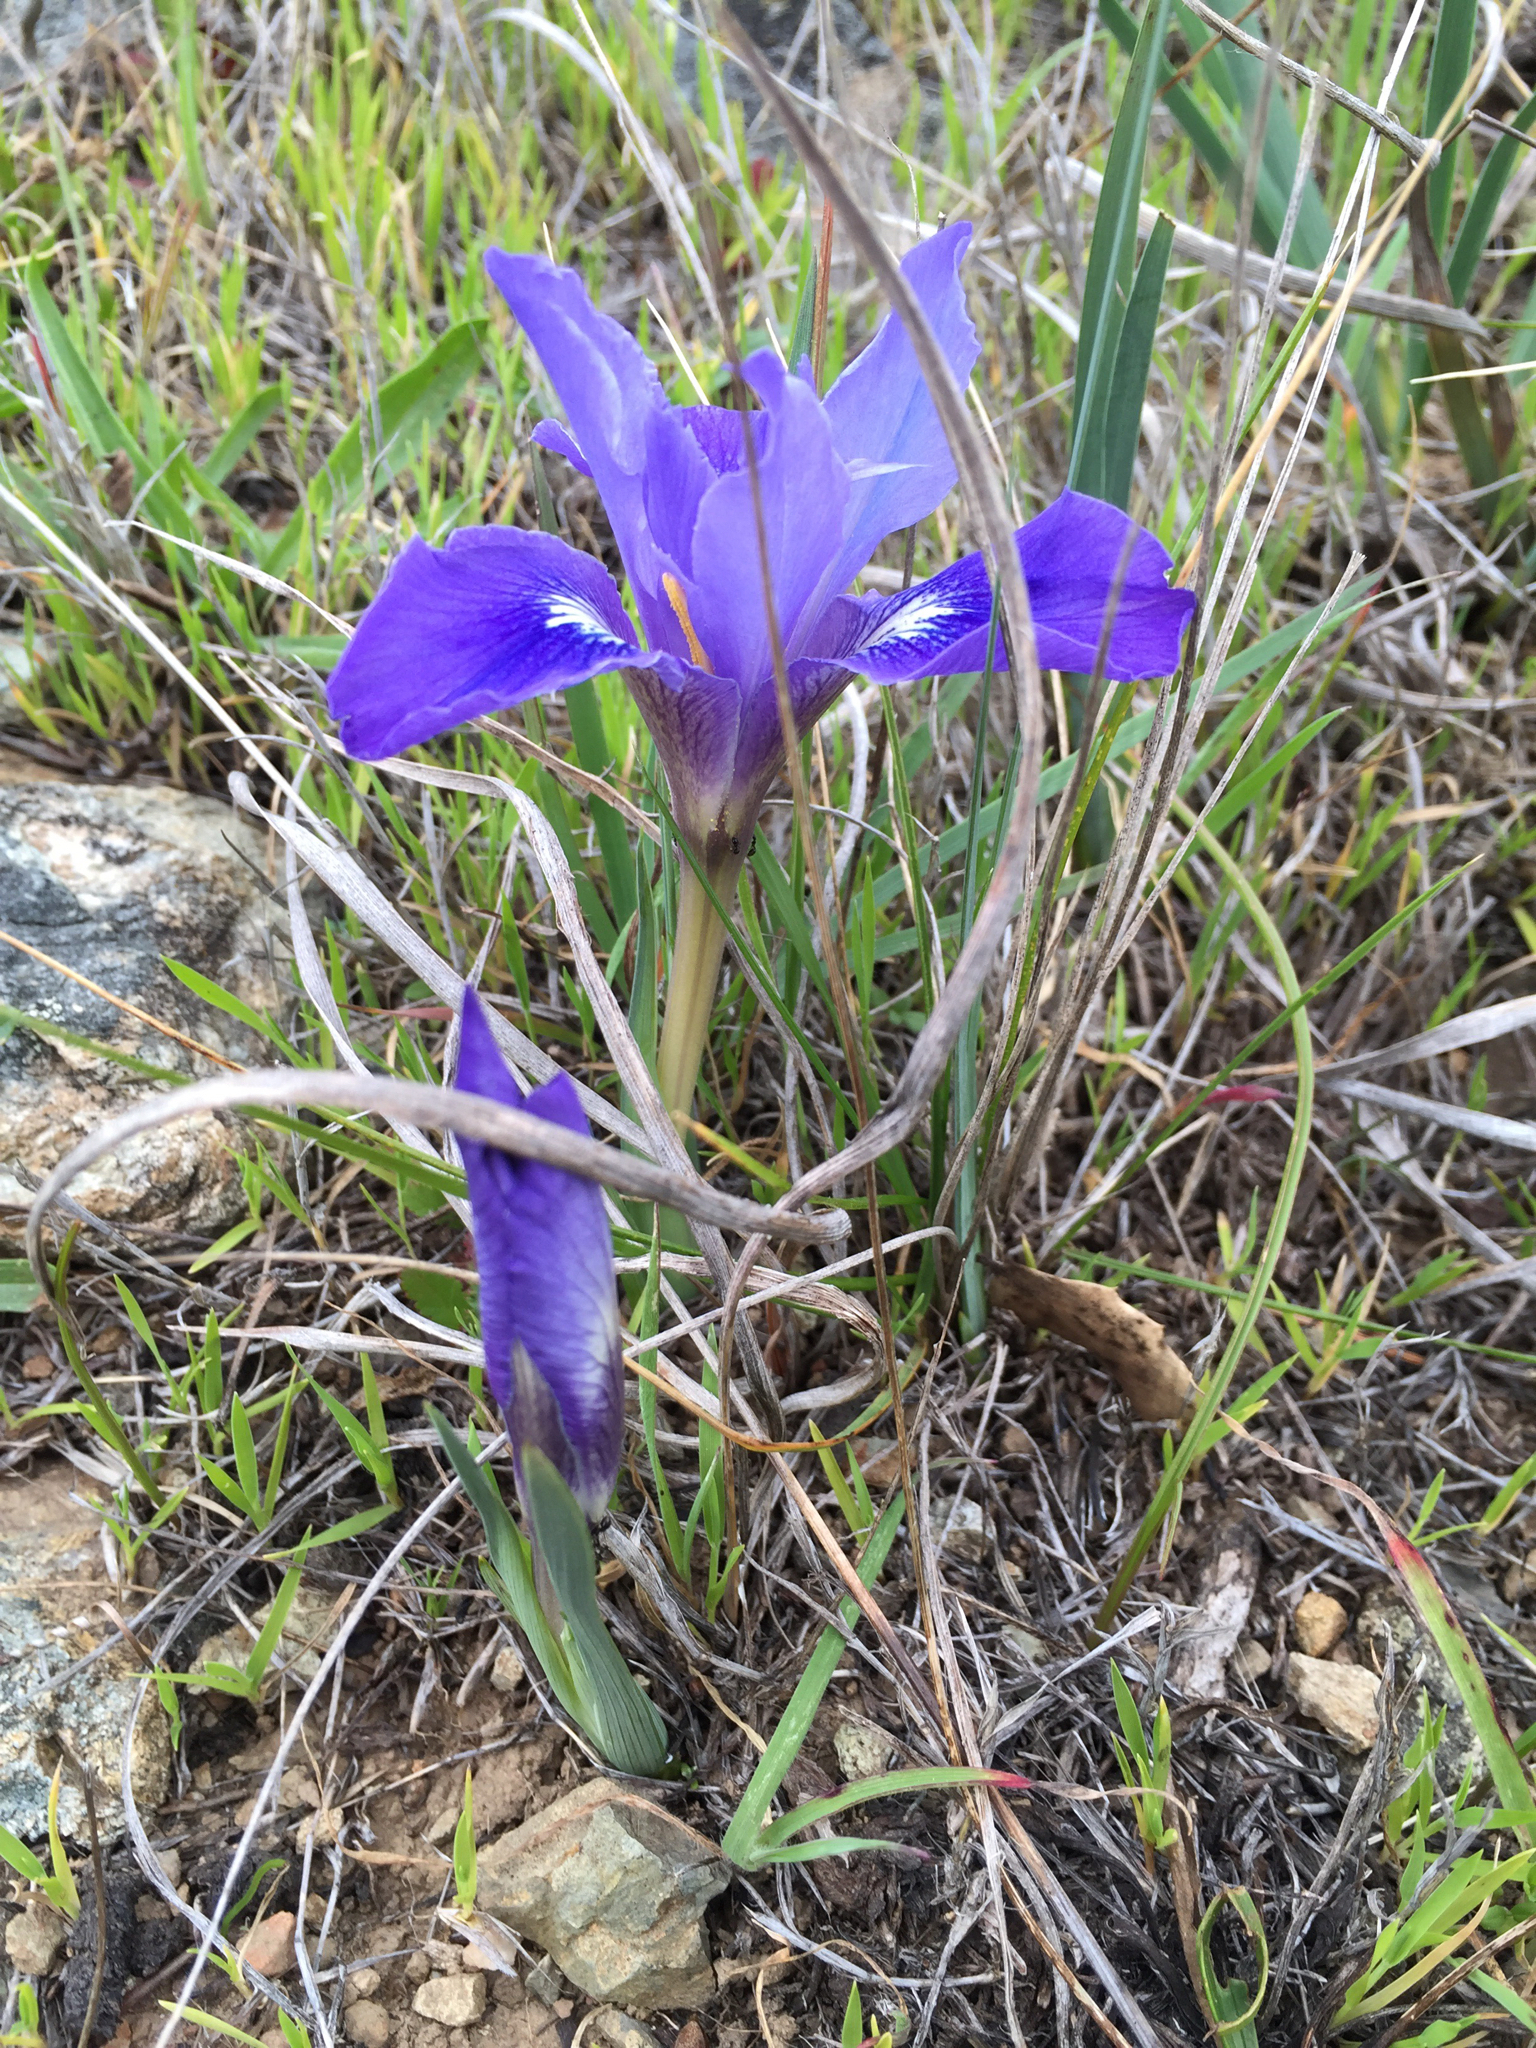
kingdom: Plantae
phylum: Tracheophyta
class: Liliopsida
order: Asparagales
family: Iridaceae
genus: Iris
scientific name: Iris macrosiphon
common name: Ground iris
